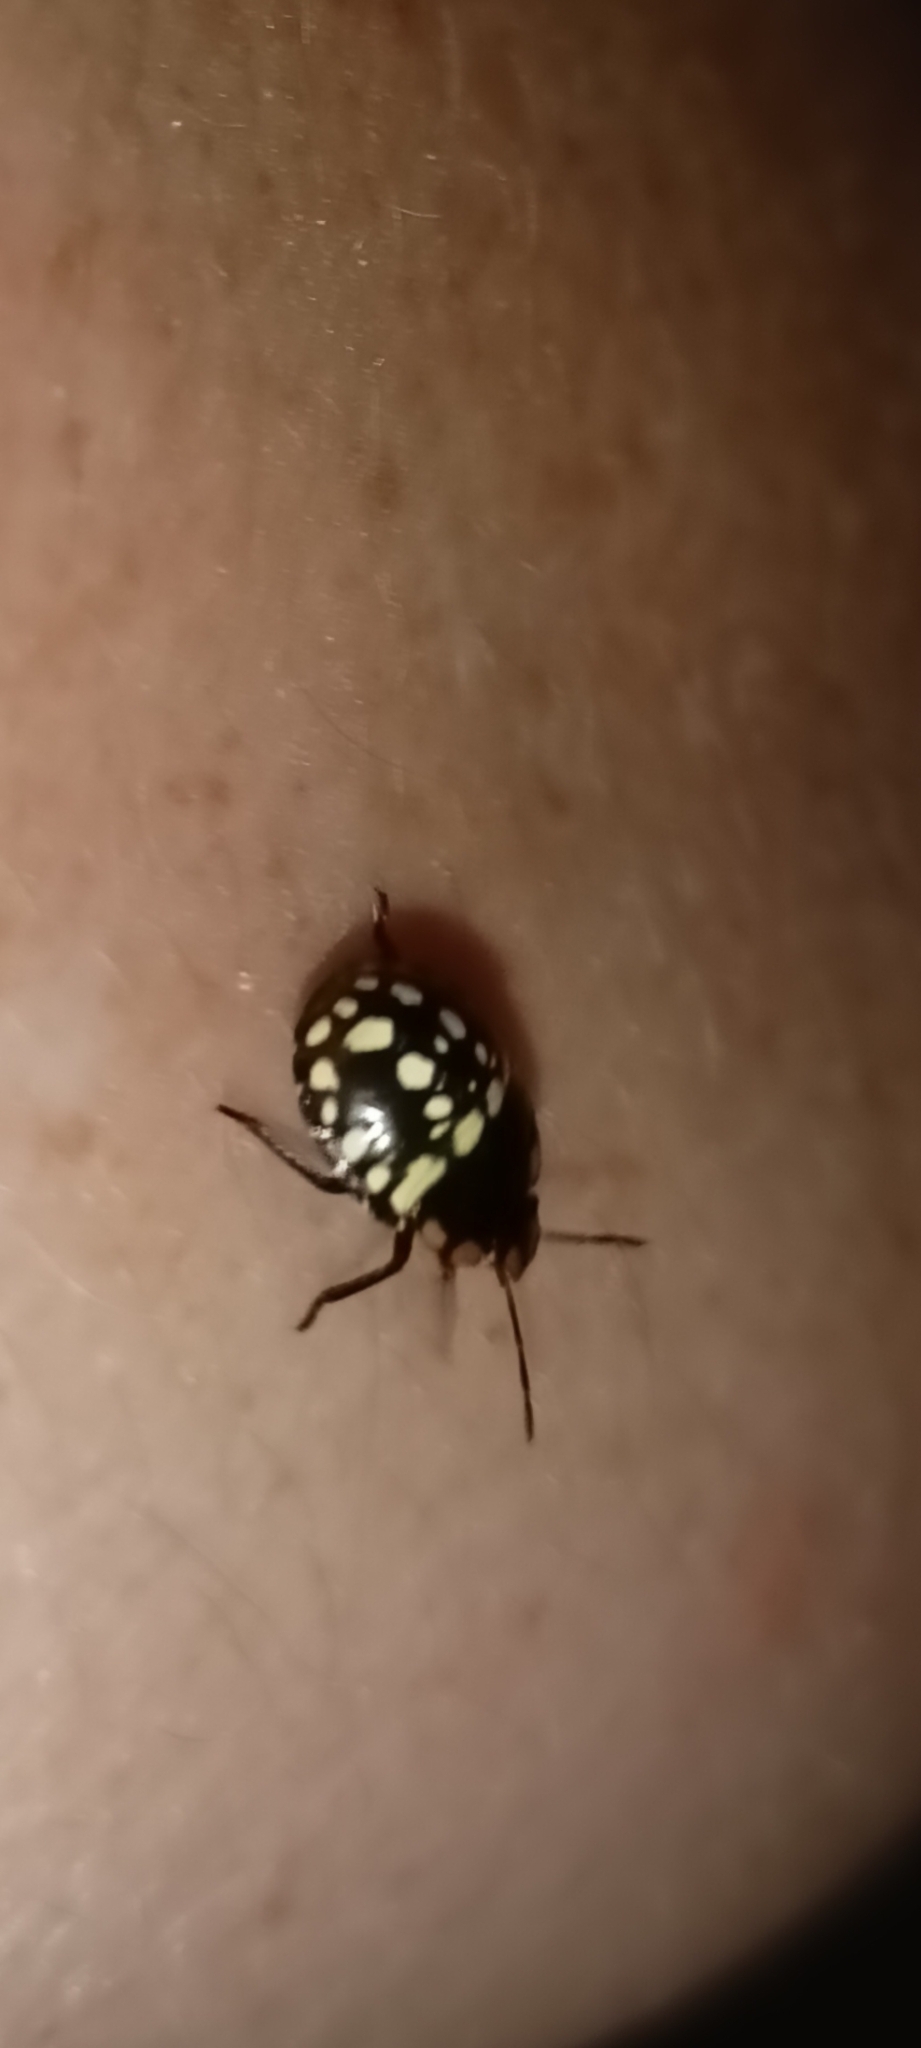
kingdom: Animalia
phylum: Arthropoda
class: Insecta
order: Hemiptera
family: Pentatomidae
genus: Nezara
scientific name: Nezara viridula
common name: Southern green stink bug
